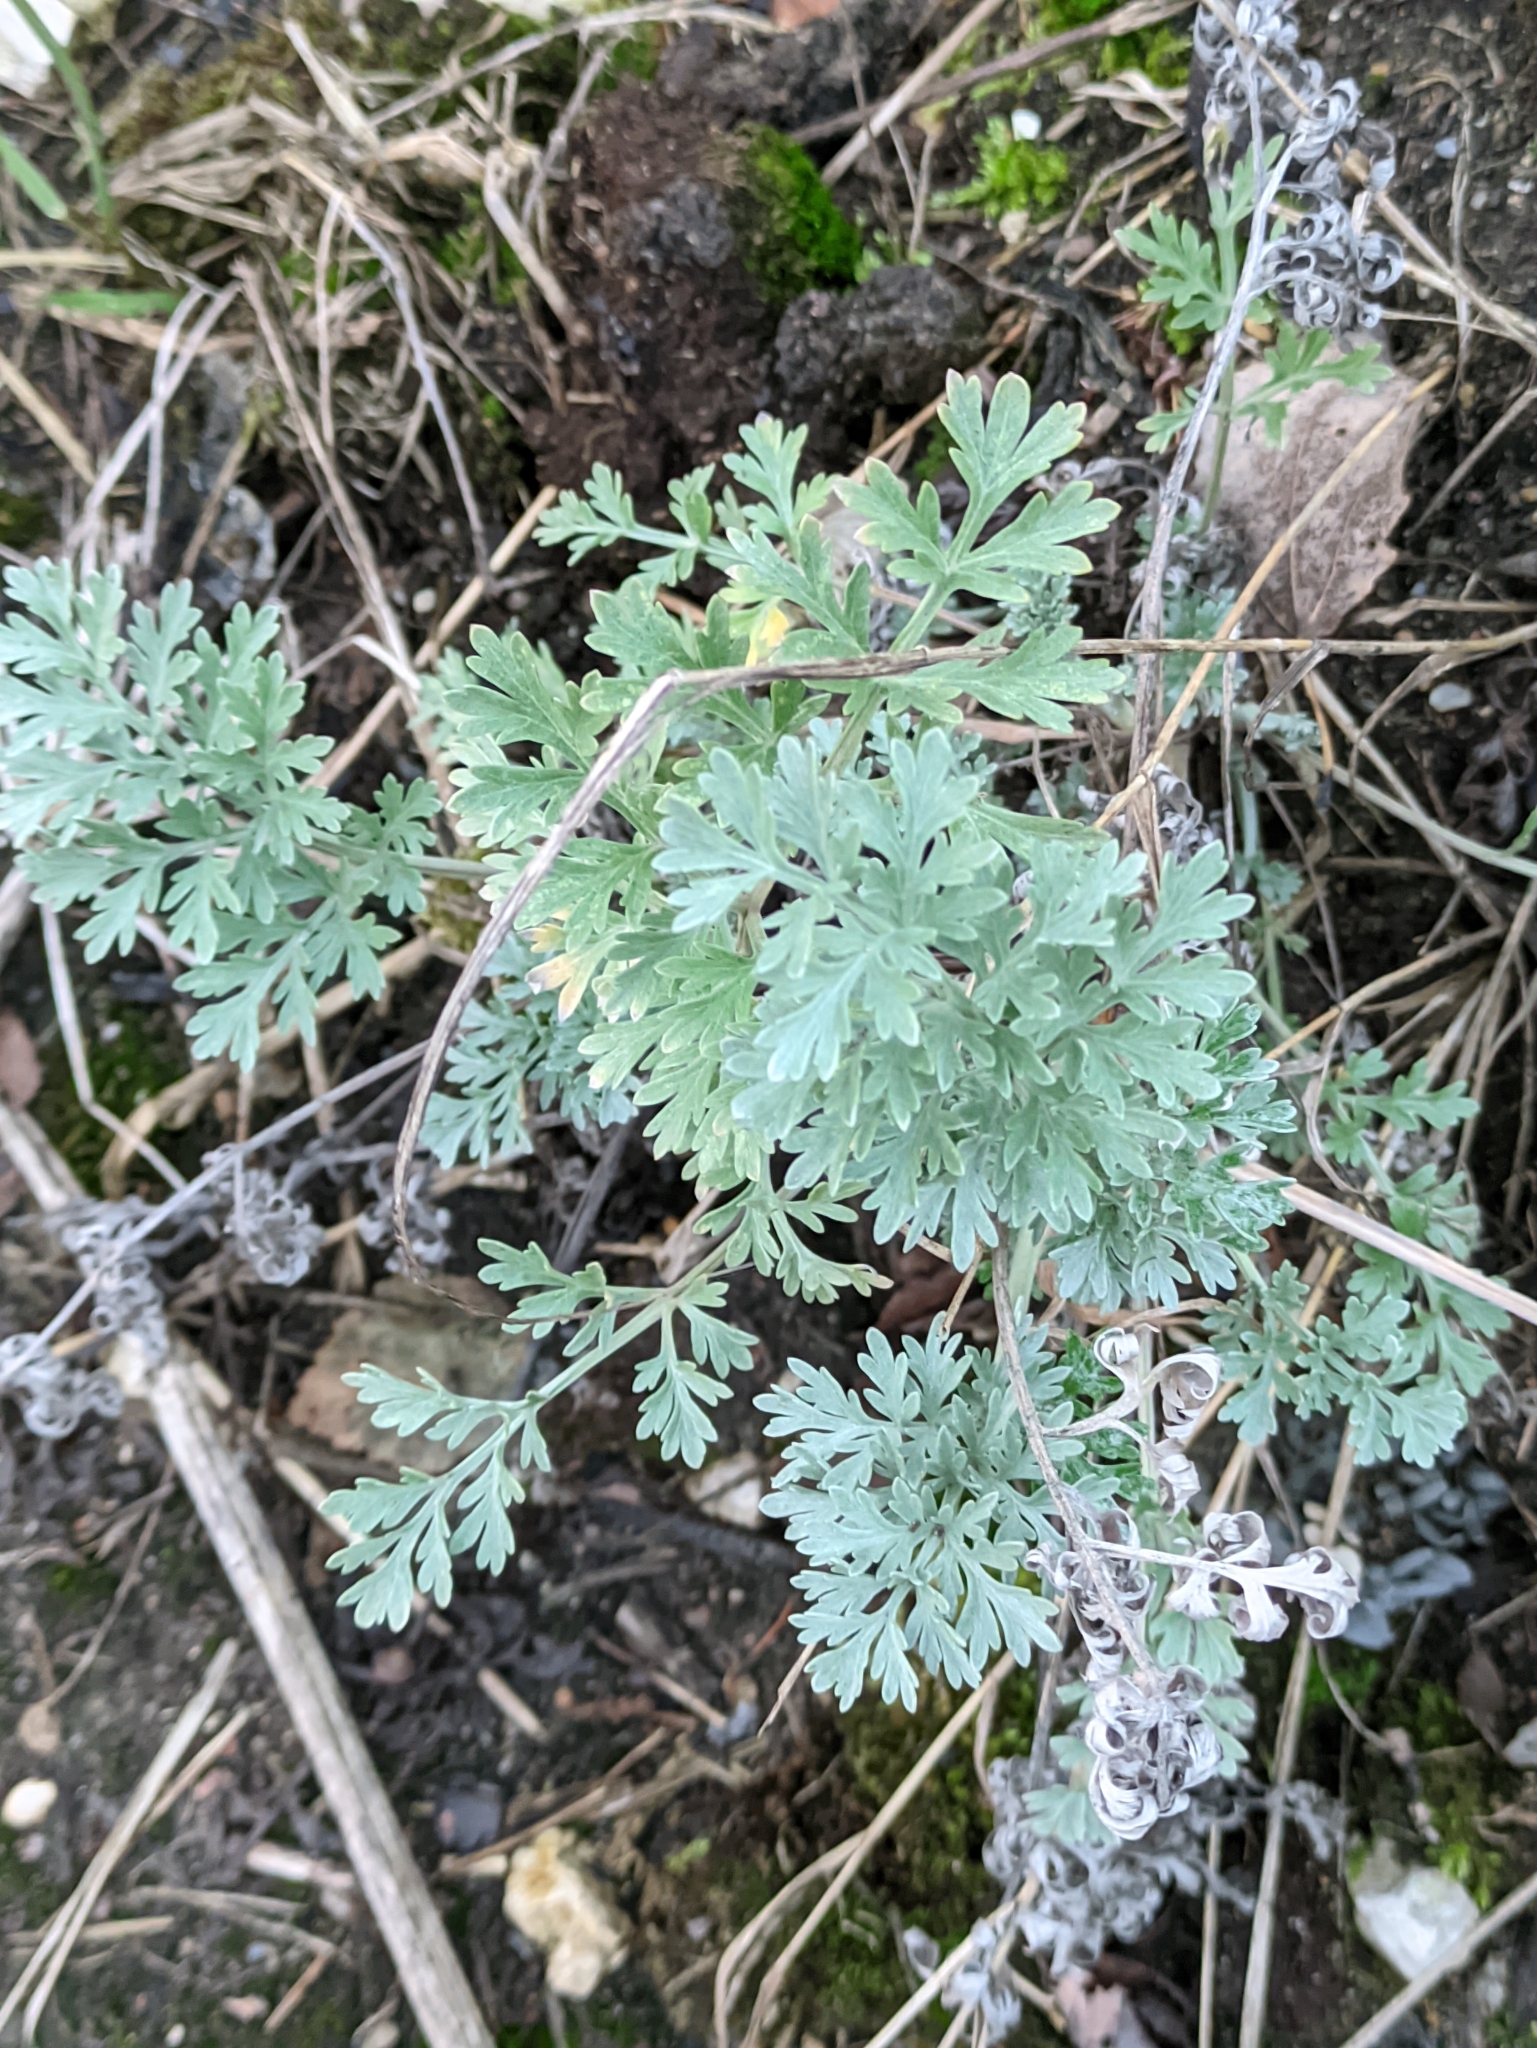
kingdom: Plantae
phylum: Tracheophyta
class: Magnoliopsida
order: Asterales
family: Asteraceae
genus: Artemisia
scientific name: Artemisia absinthium
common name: Wormwood
